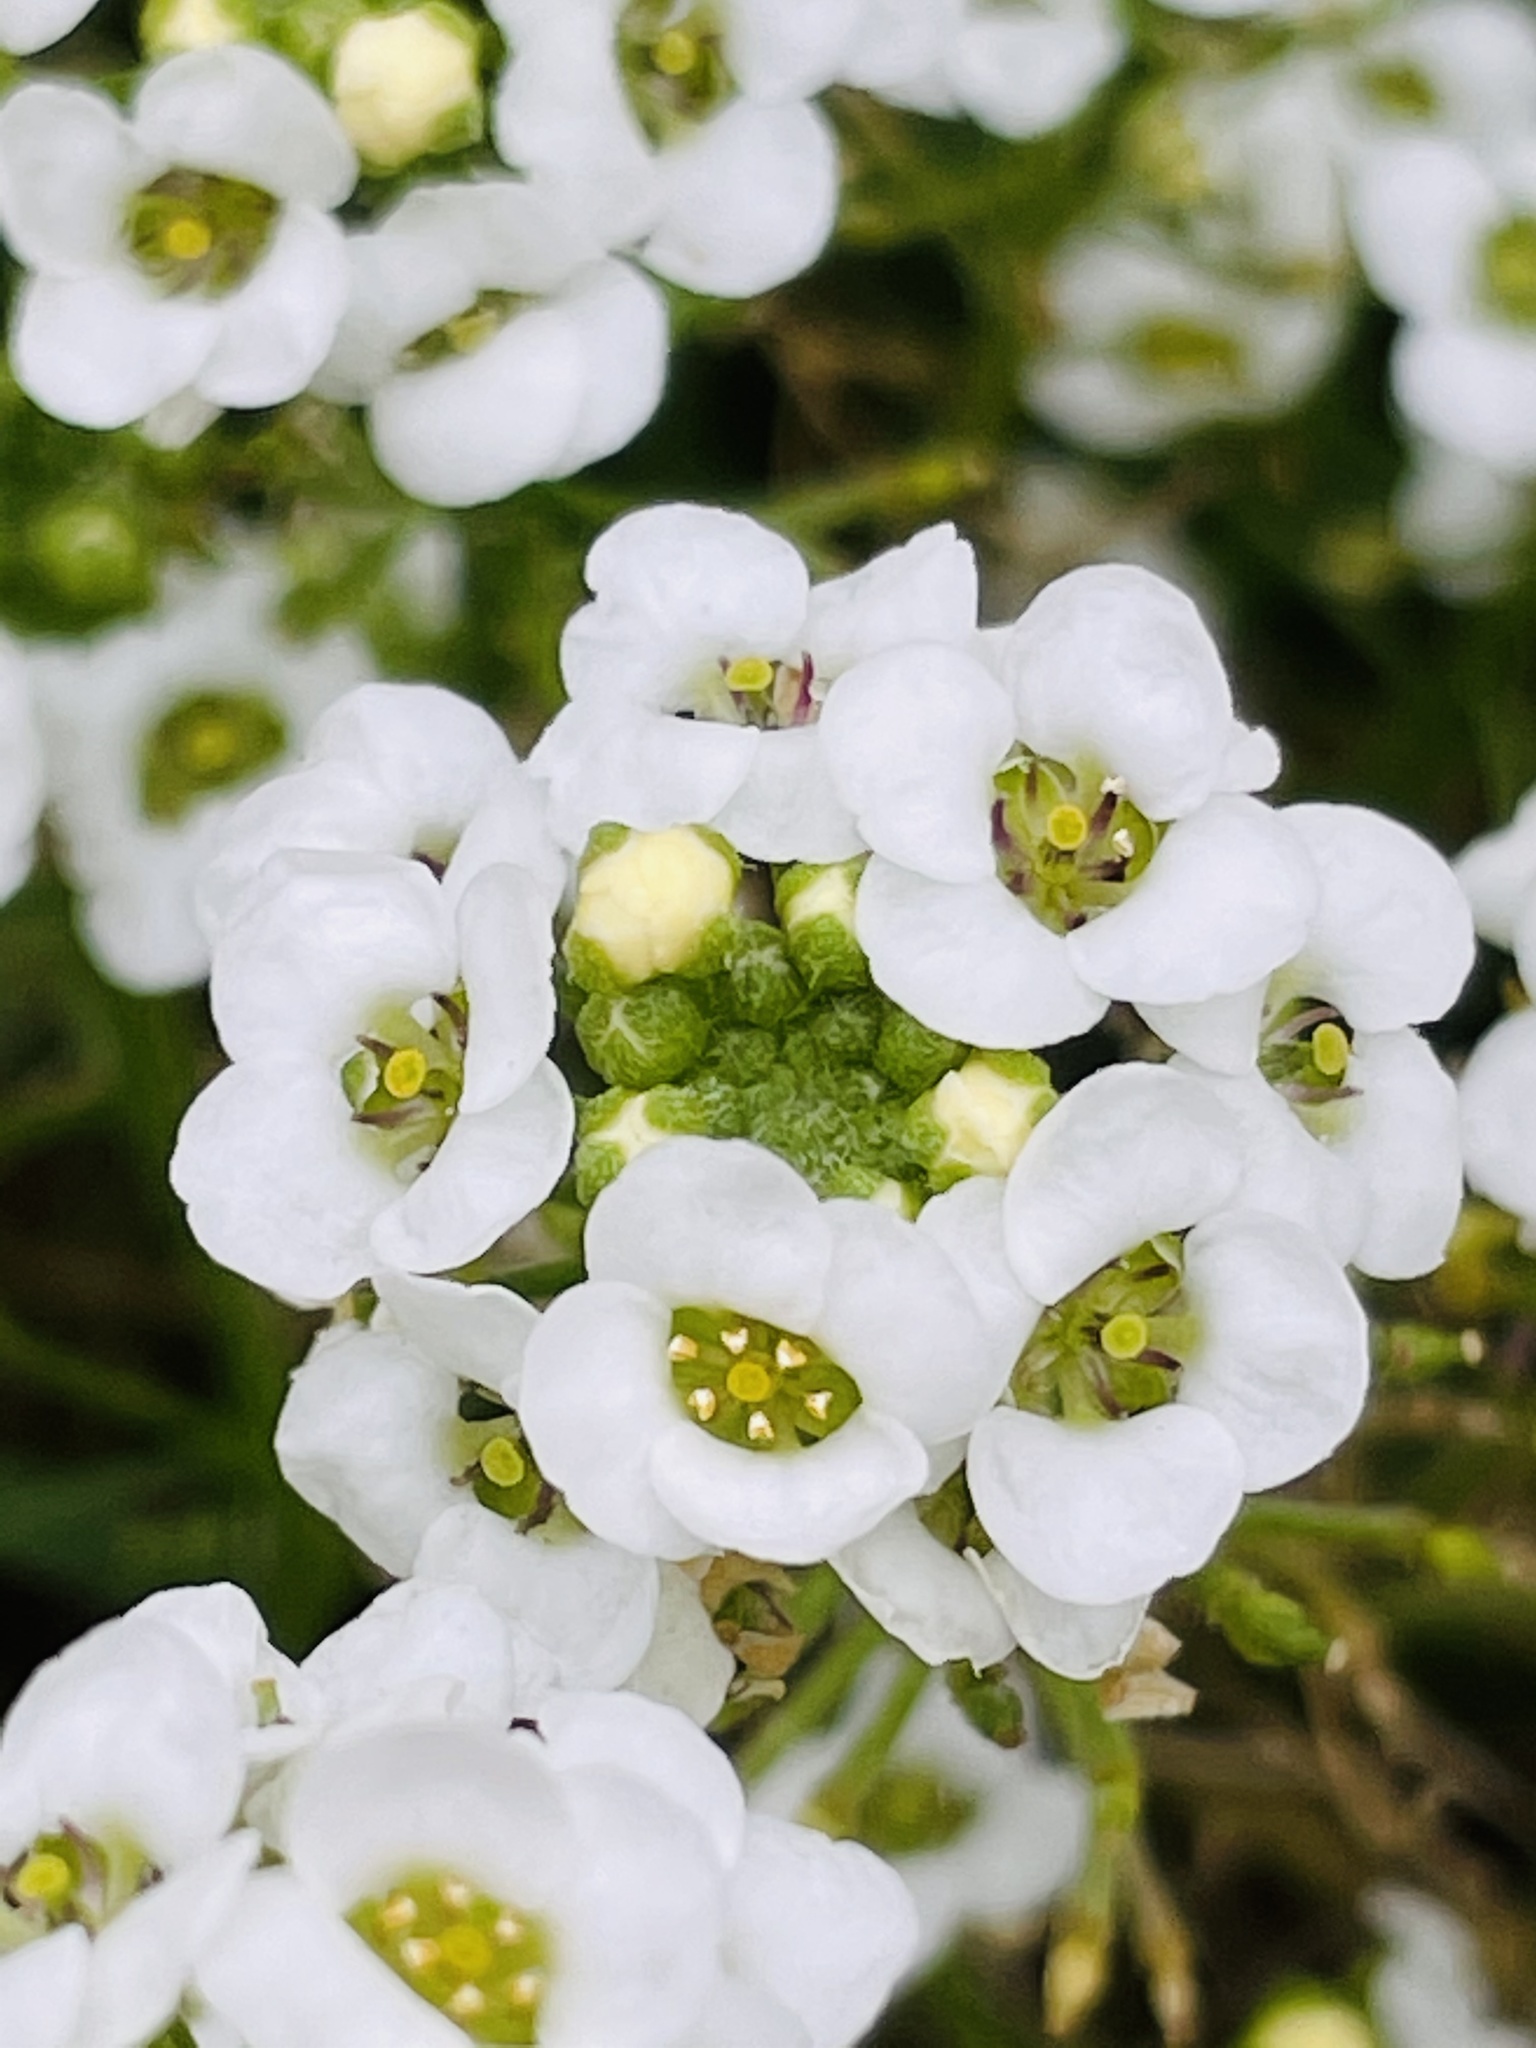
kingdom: Plantae
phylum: Tracheophyta
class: Magnoliopsida
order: Brassicales
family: Brassicaceae
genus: Lobularia
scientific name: Lobularia maritima
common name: Sweet alison
